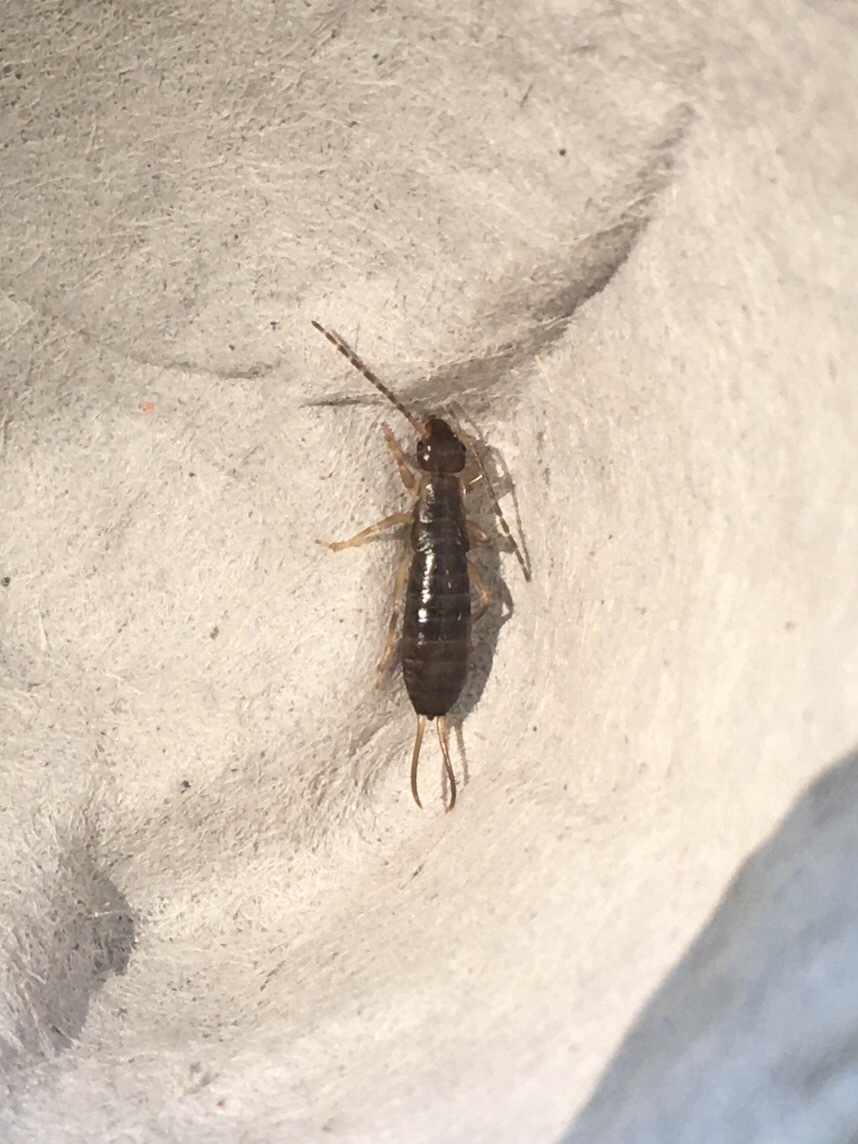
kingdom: Animalia
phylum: Arthropoda
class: Insecta
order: Dermaptera
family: Forficulidae
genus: Forficula
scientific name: Forficula
